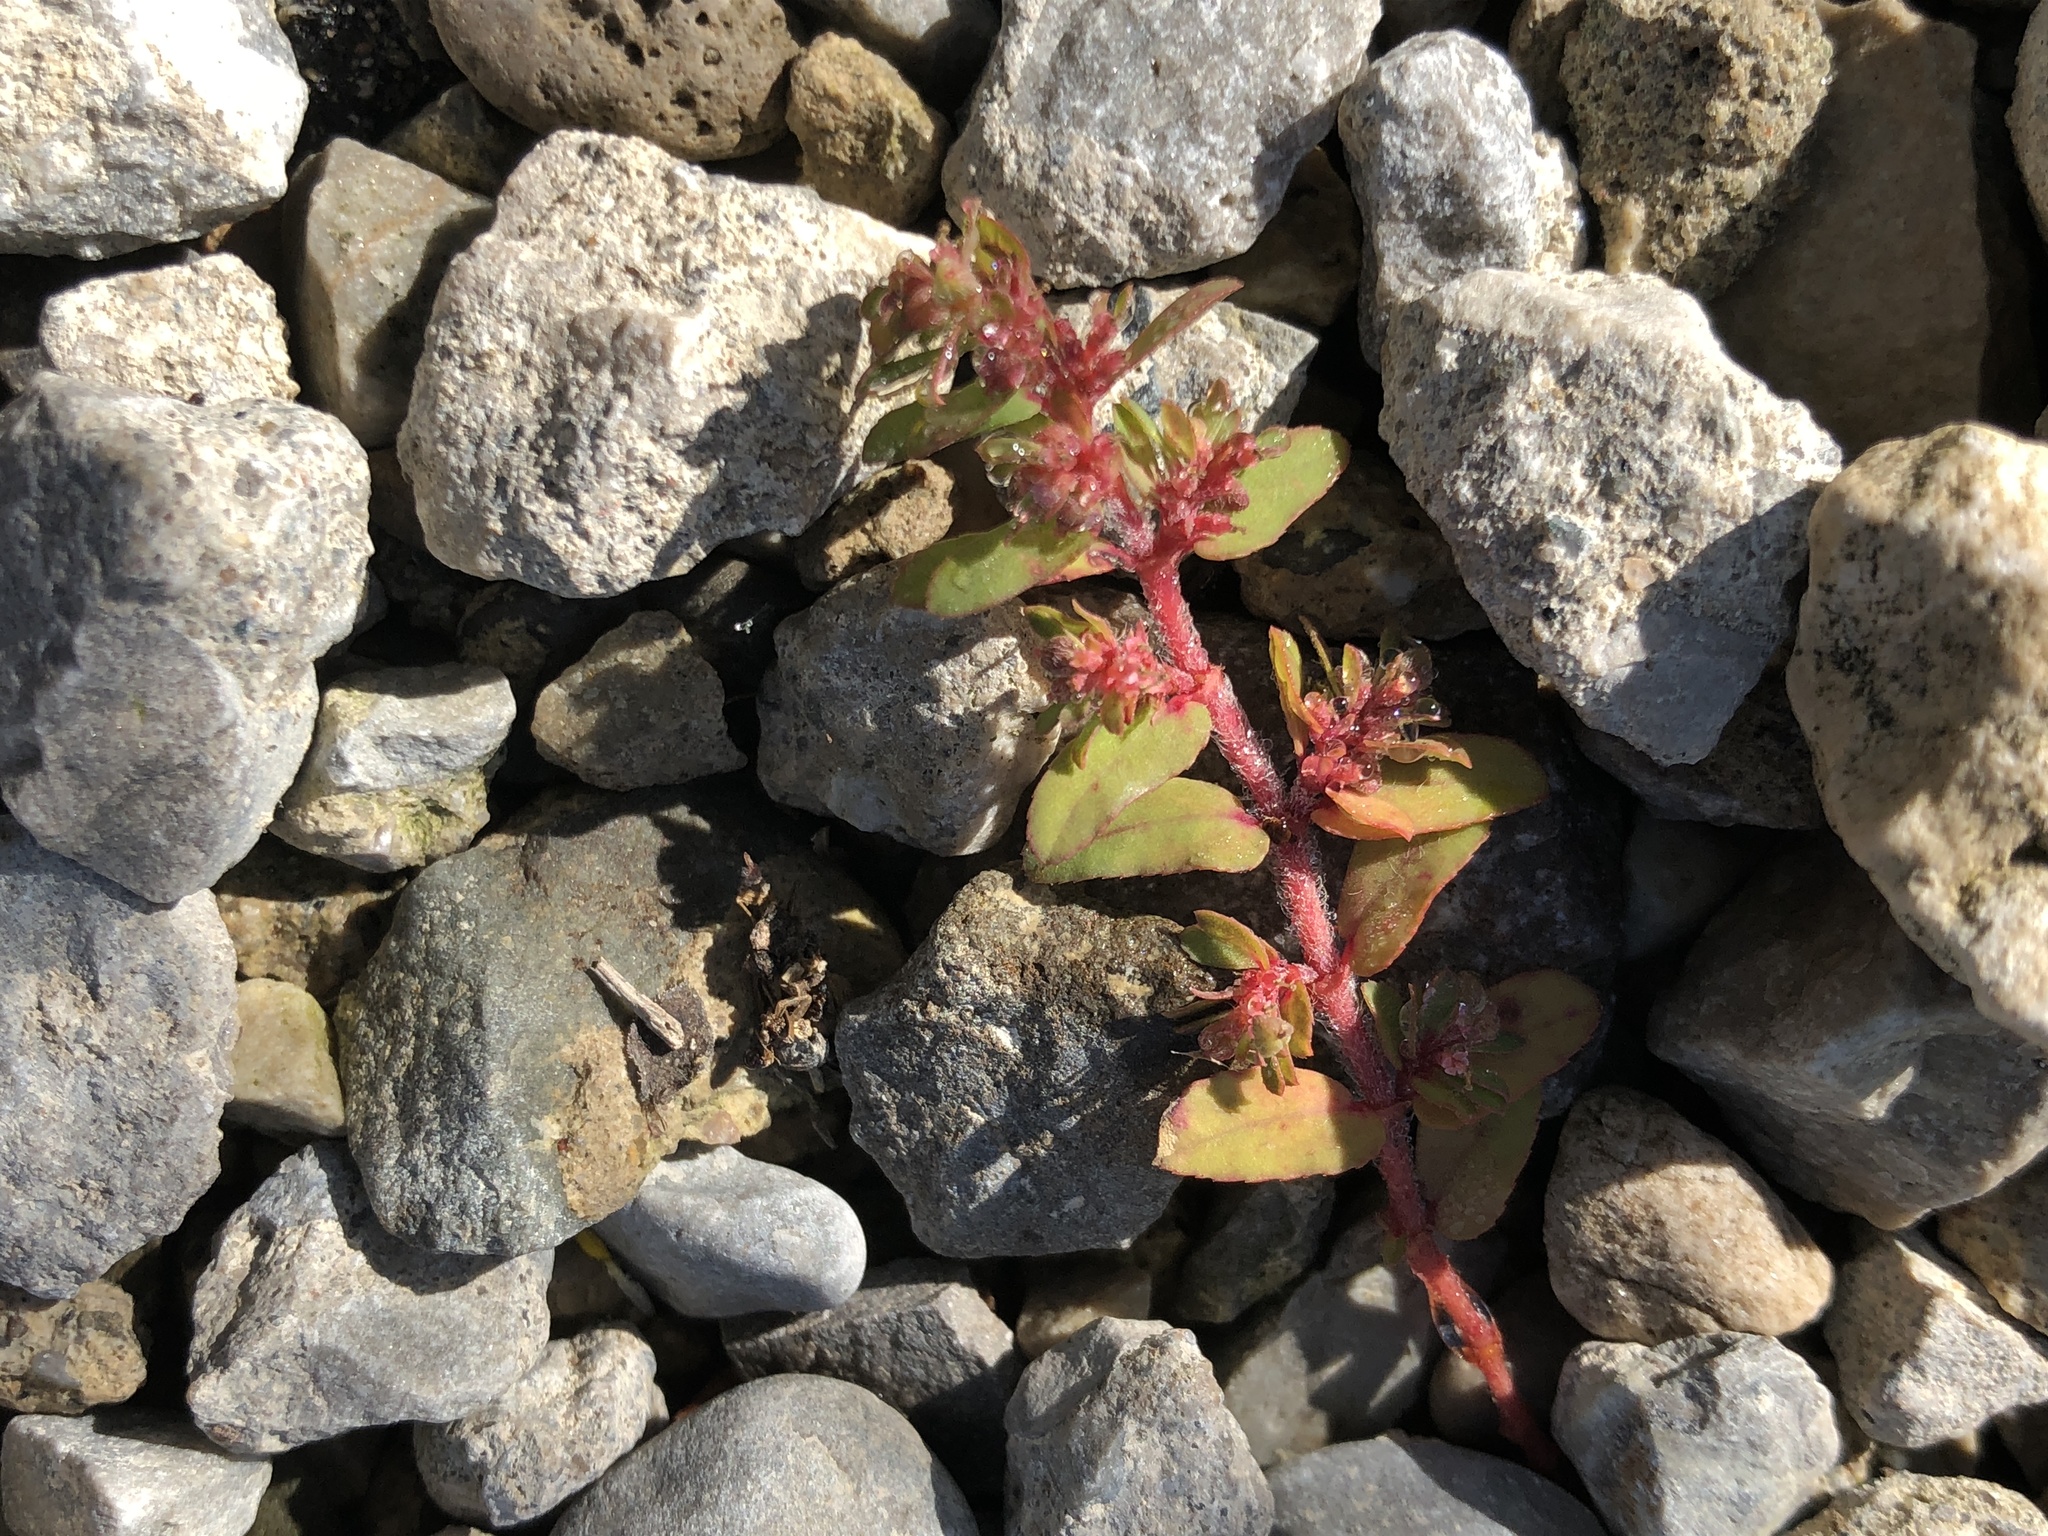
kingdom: Plantae
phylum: Tracheophyta
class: Magnoliopsida
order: Malpighiales
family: Euphorbiaceae
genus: Euphorbia
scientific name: Euphorbia maculata
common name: Spotted spurge
